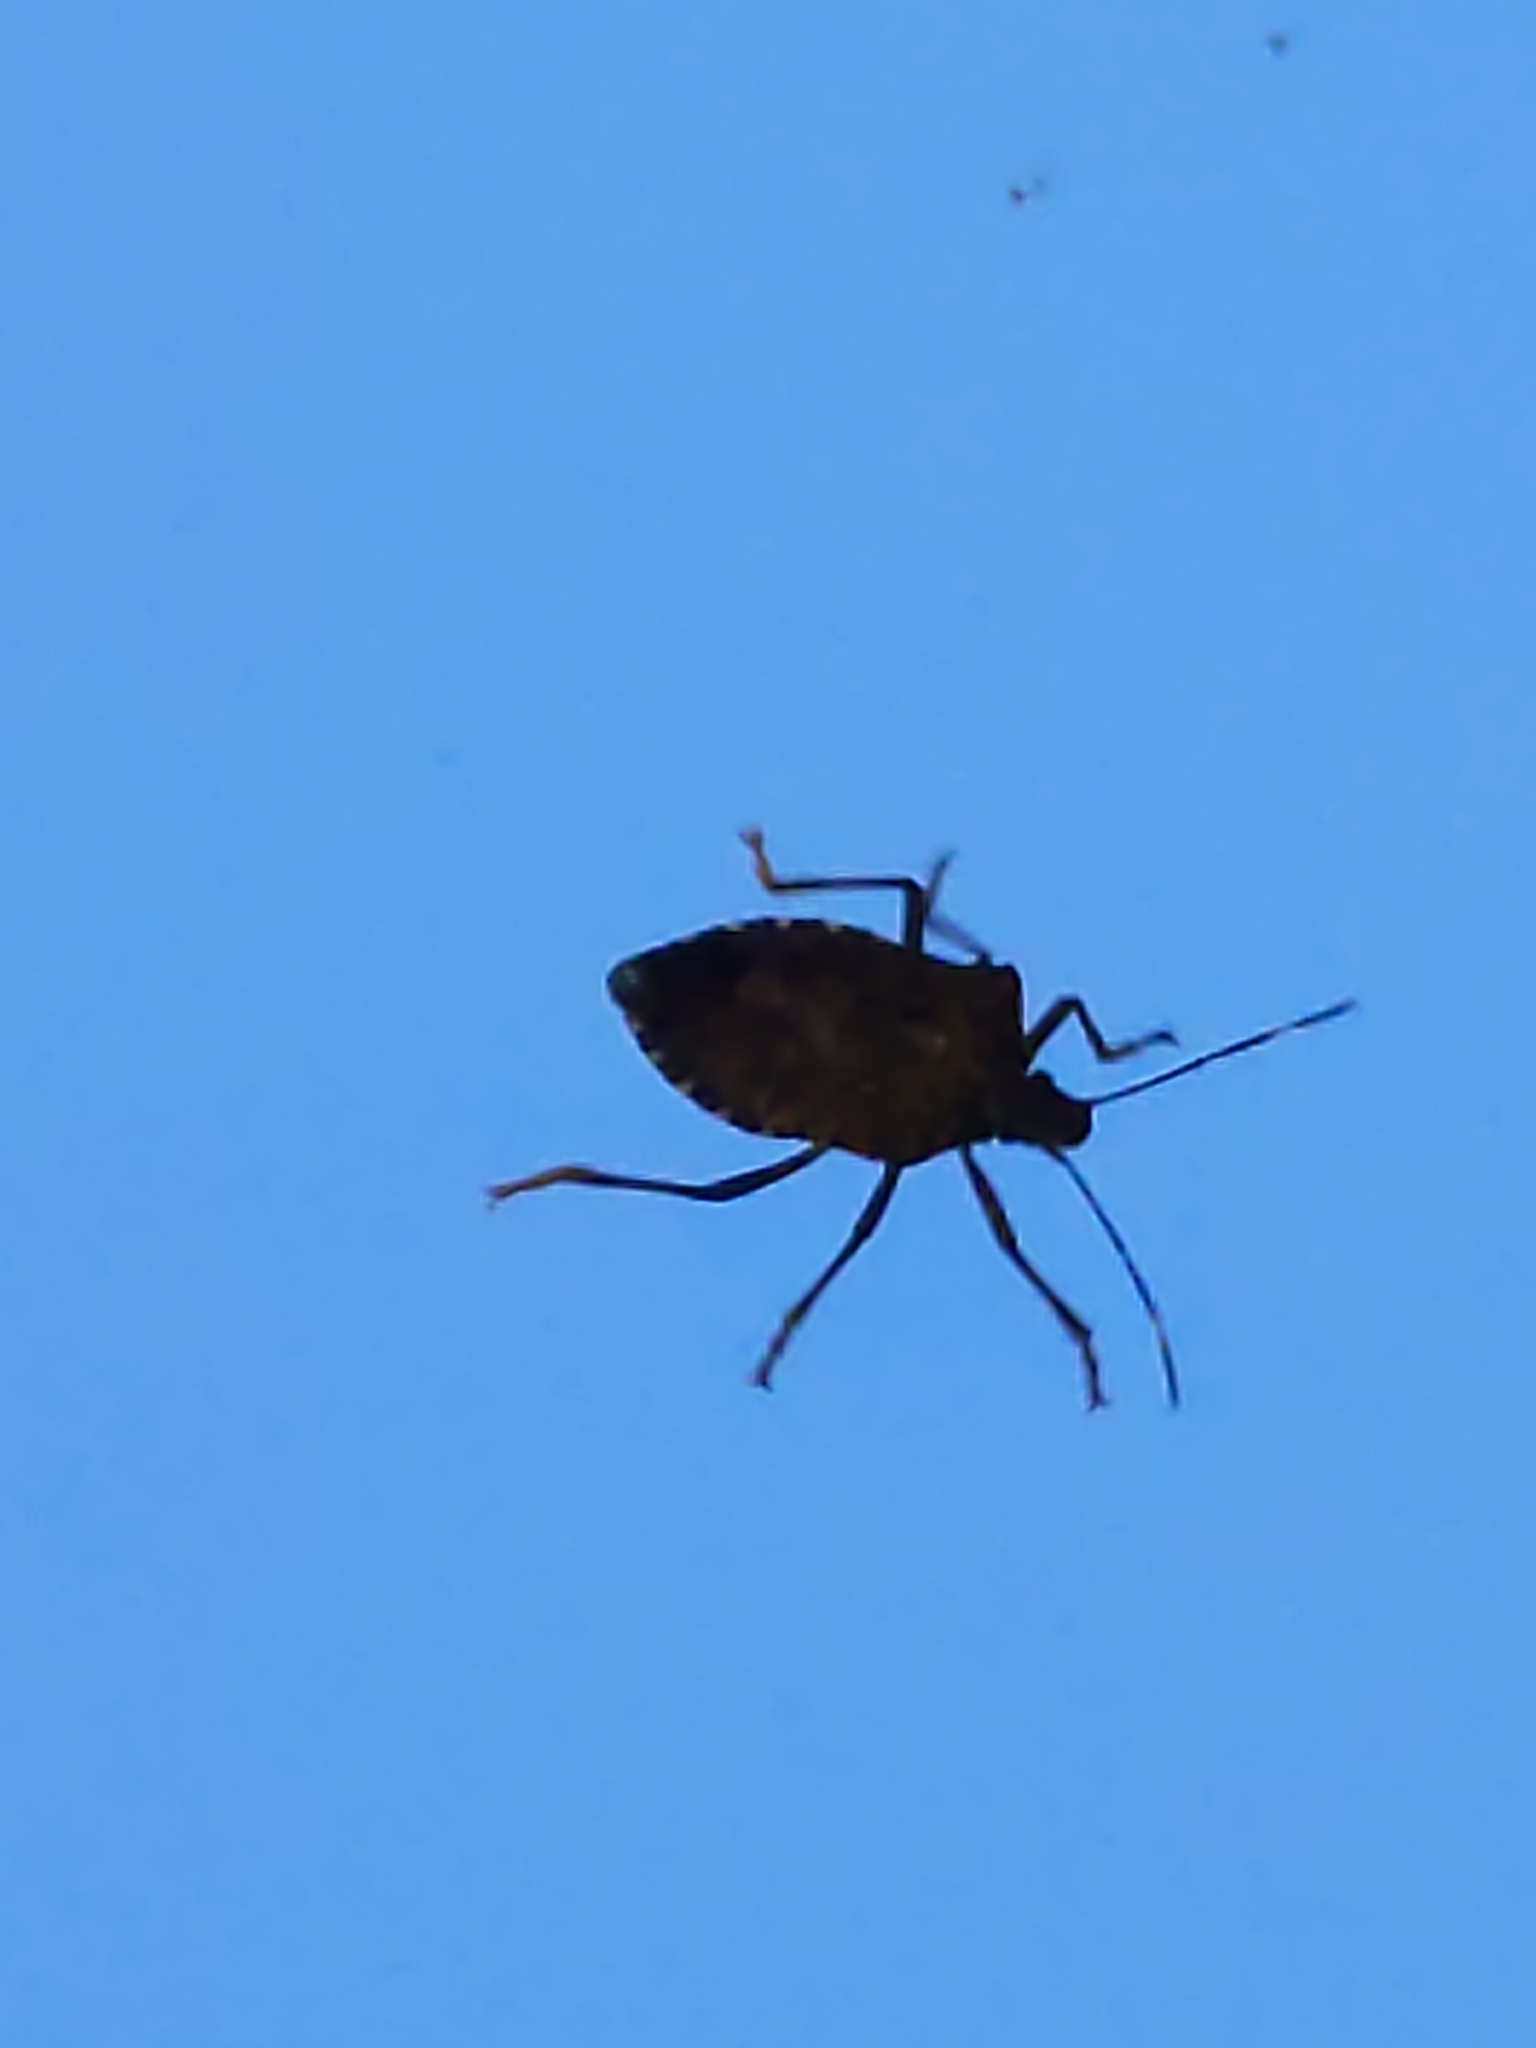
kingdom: Animalia
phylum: Arthropoda
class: Insecta
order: Hemiptera
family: Pentatomidae
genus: Halyomorpha
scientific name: Halyomorpha halys
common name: Brown marmorated stink bug
